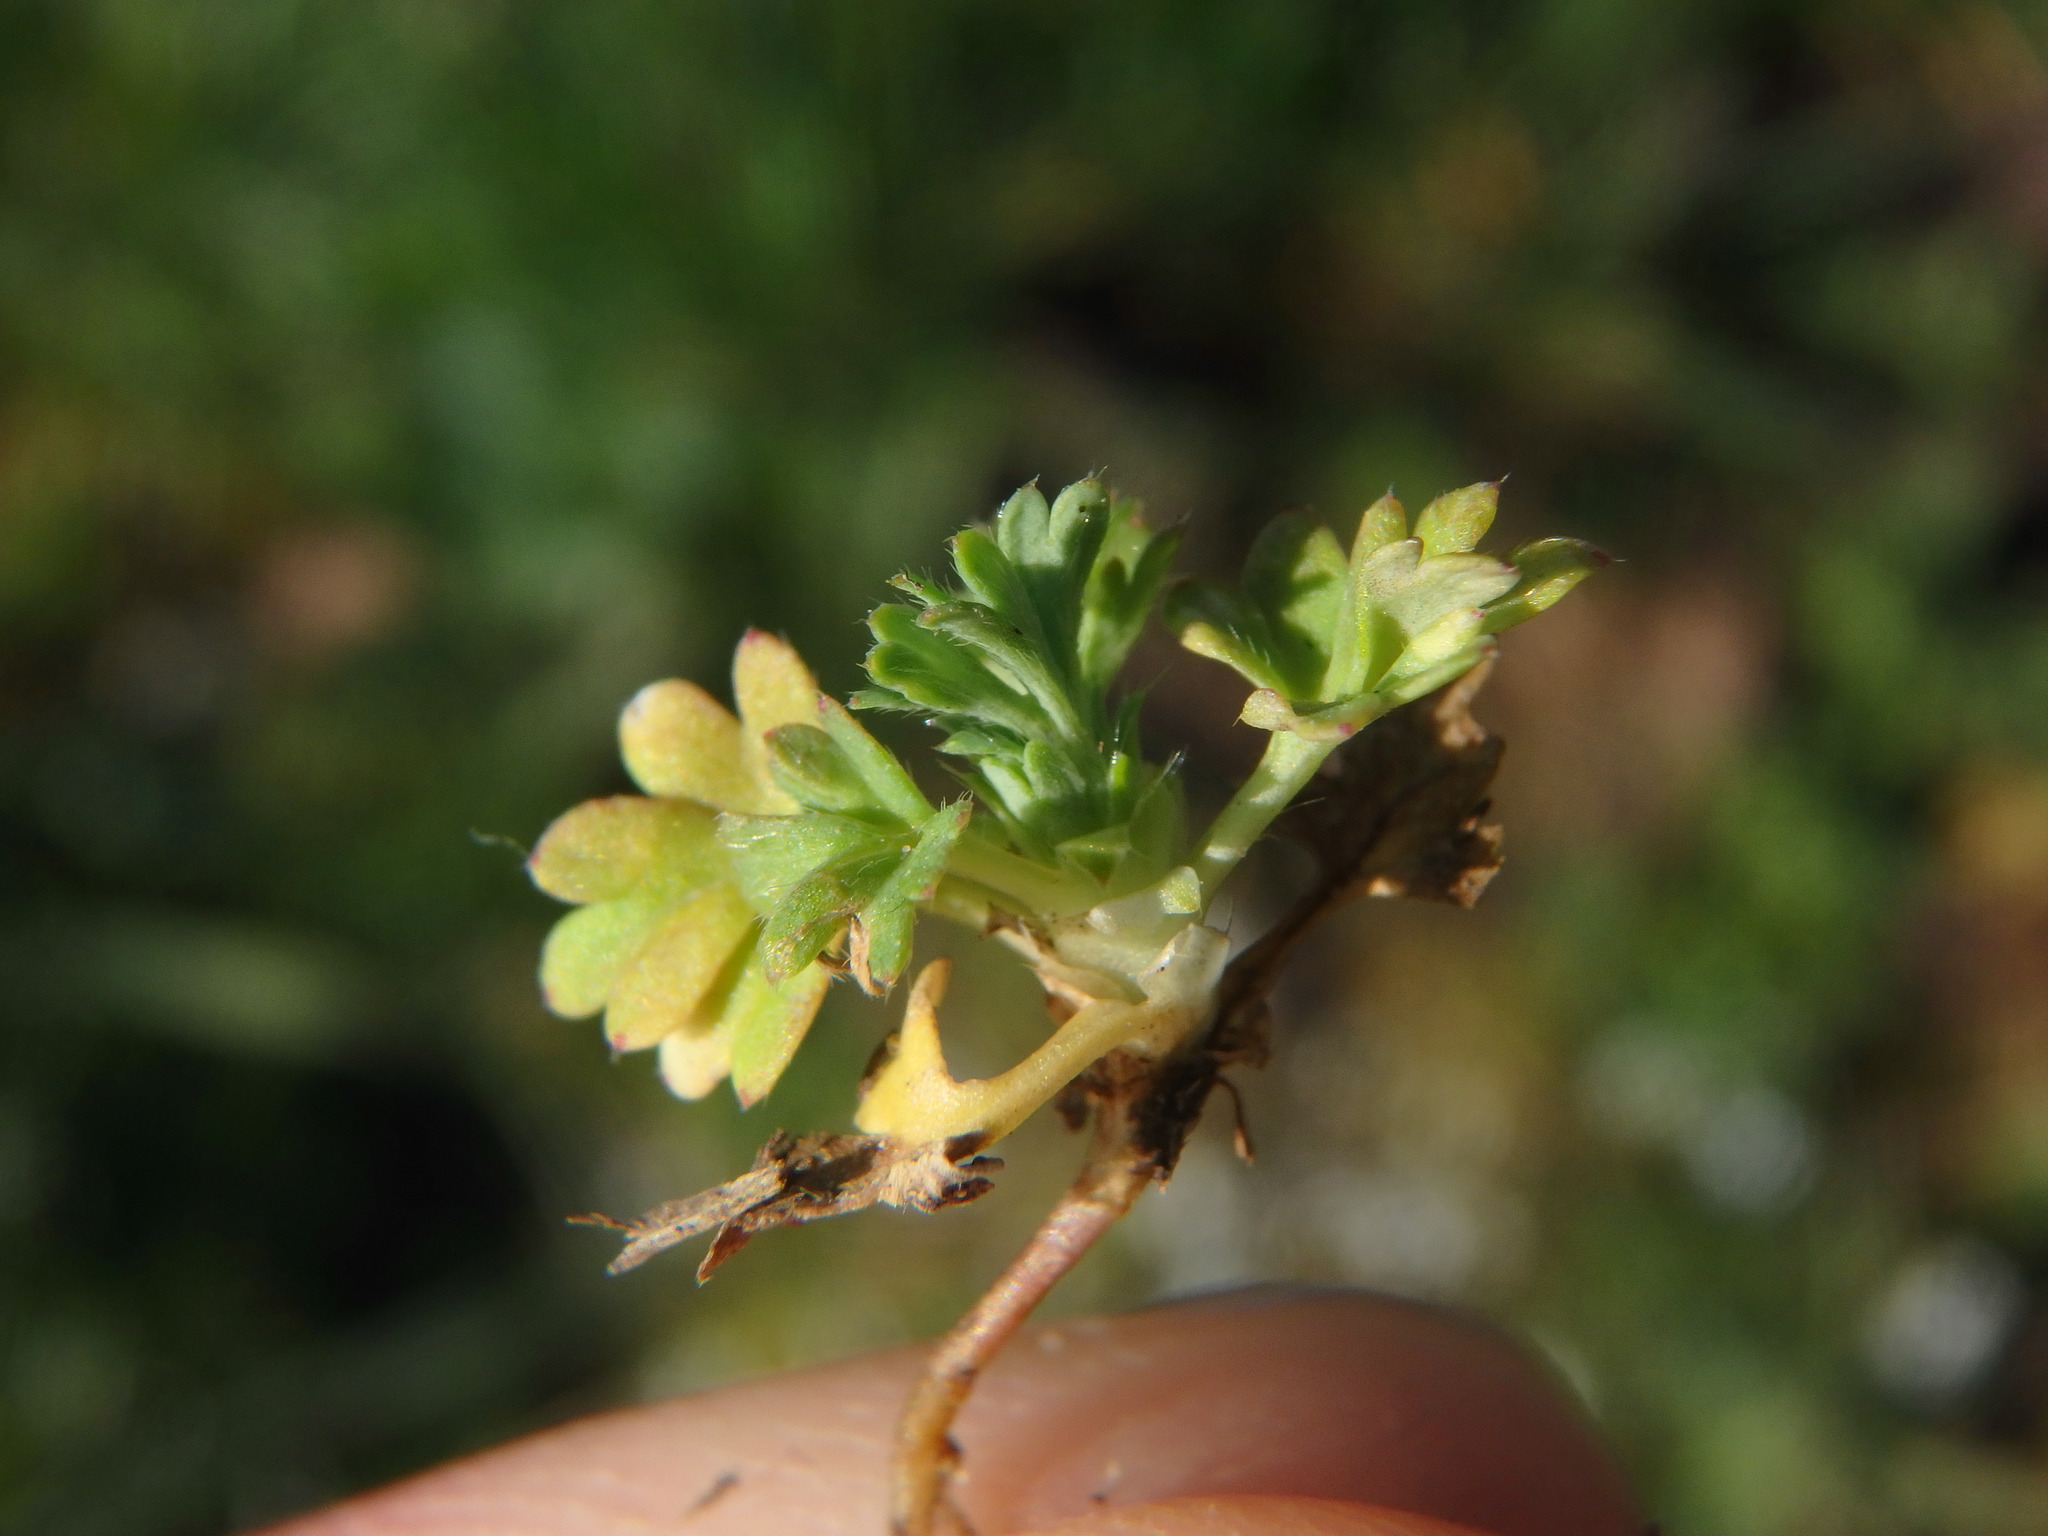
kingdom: Plantae
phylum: Tracheophyta
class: Magnoliopsida
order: Rosales
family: Rosaceae
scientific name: Rosaceae
